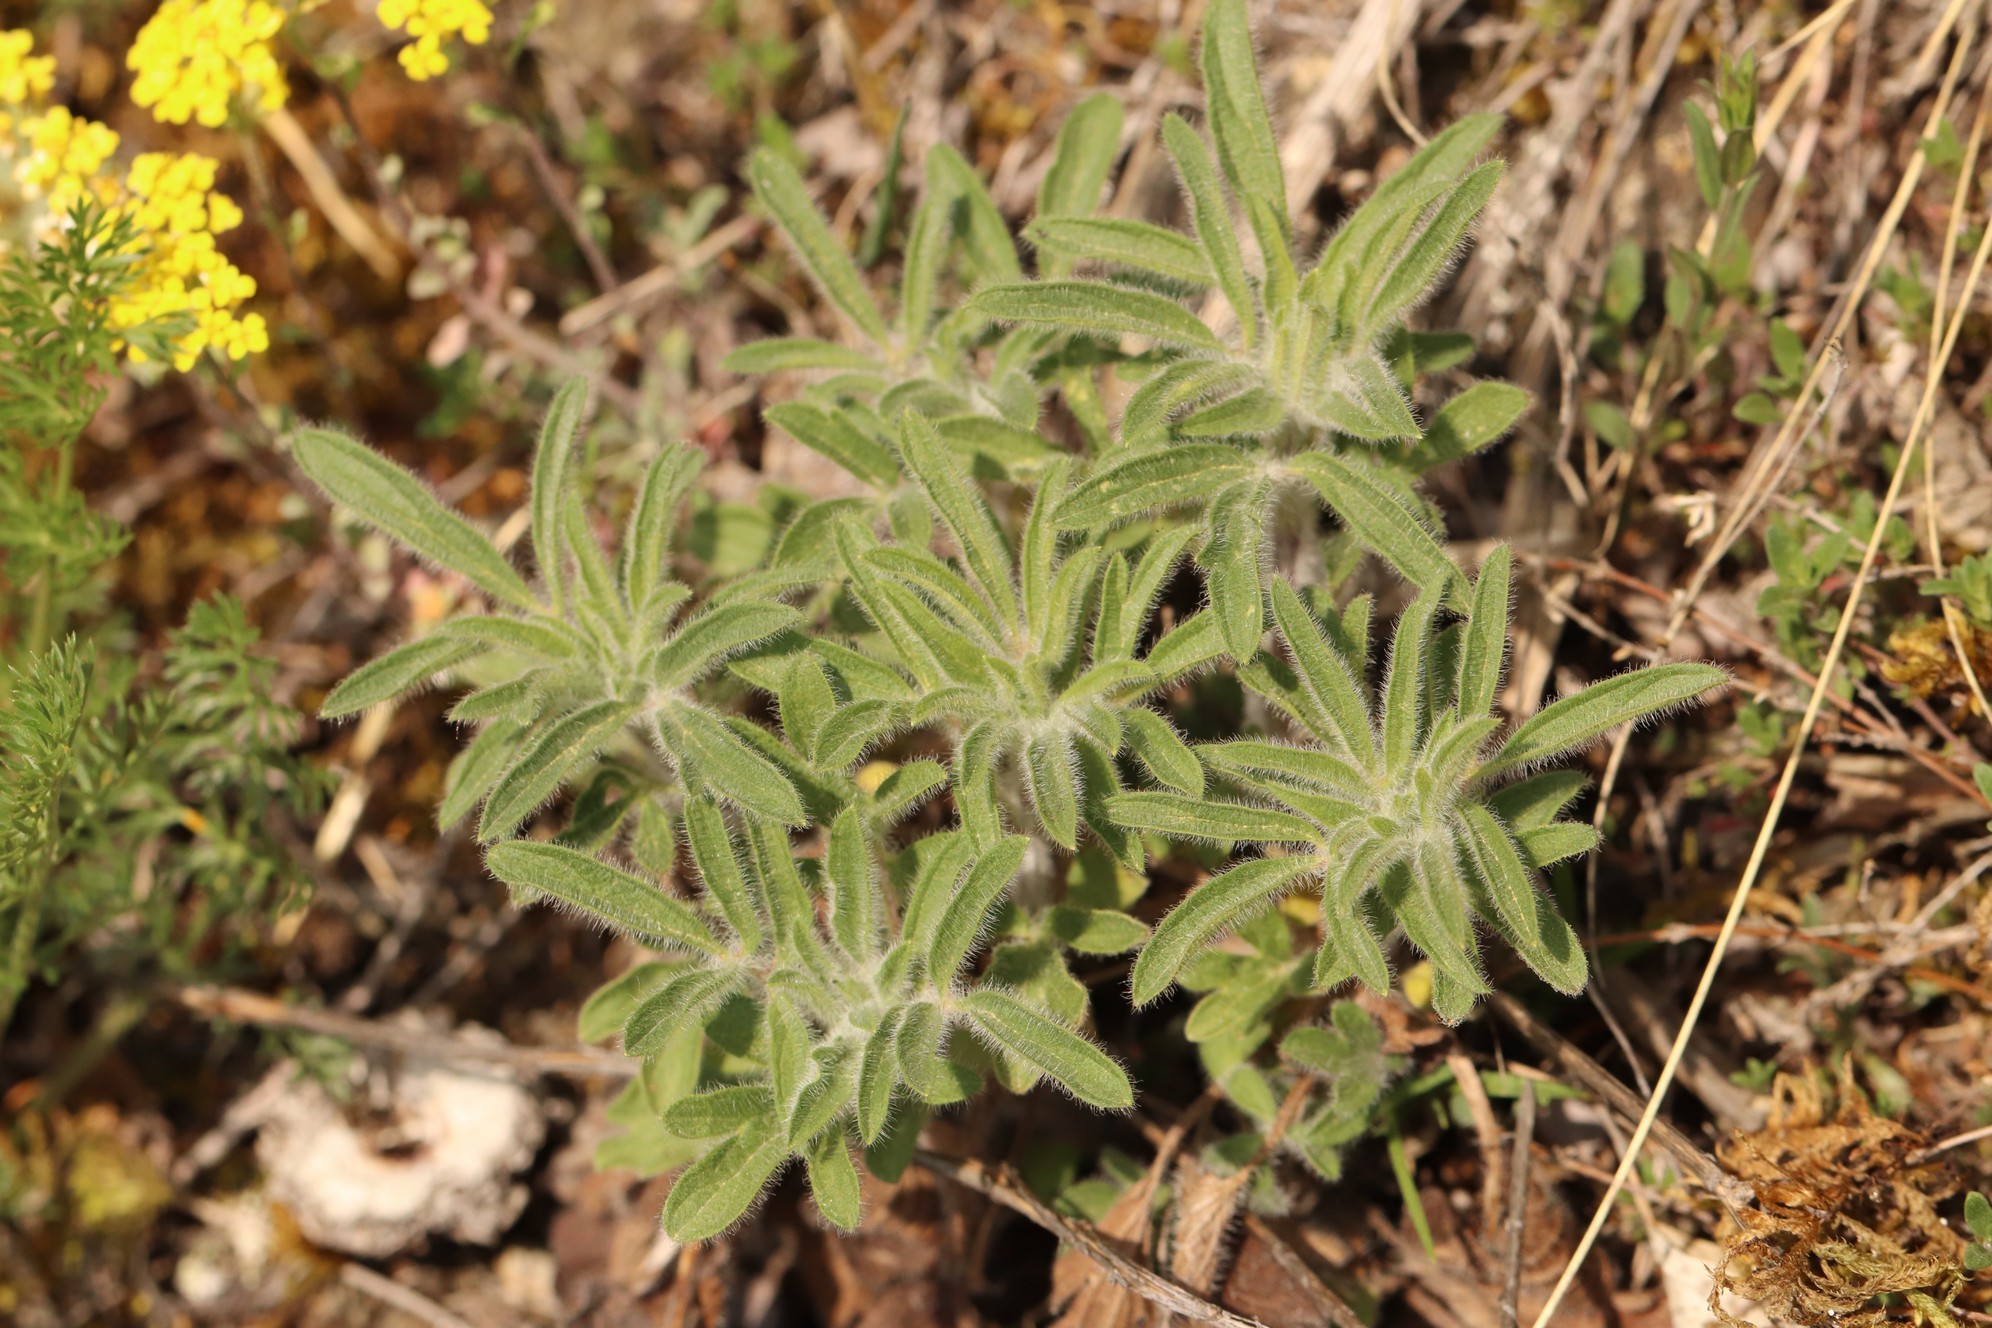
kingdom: Plantae
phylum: Tracheophyta
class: Magnoliopsida
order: Lamiales
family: Lamiaceae
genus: Nepeta
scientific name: Nepeta multifida
